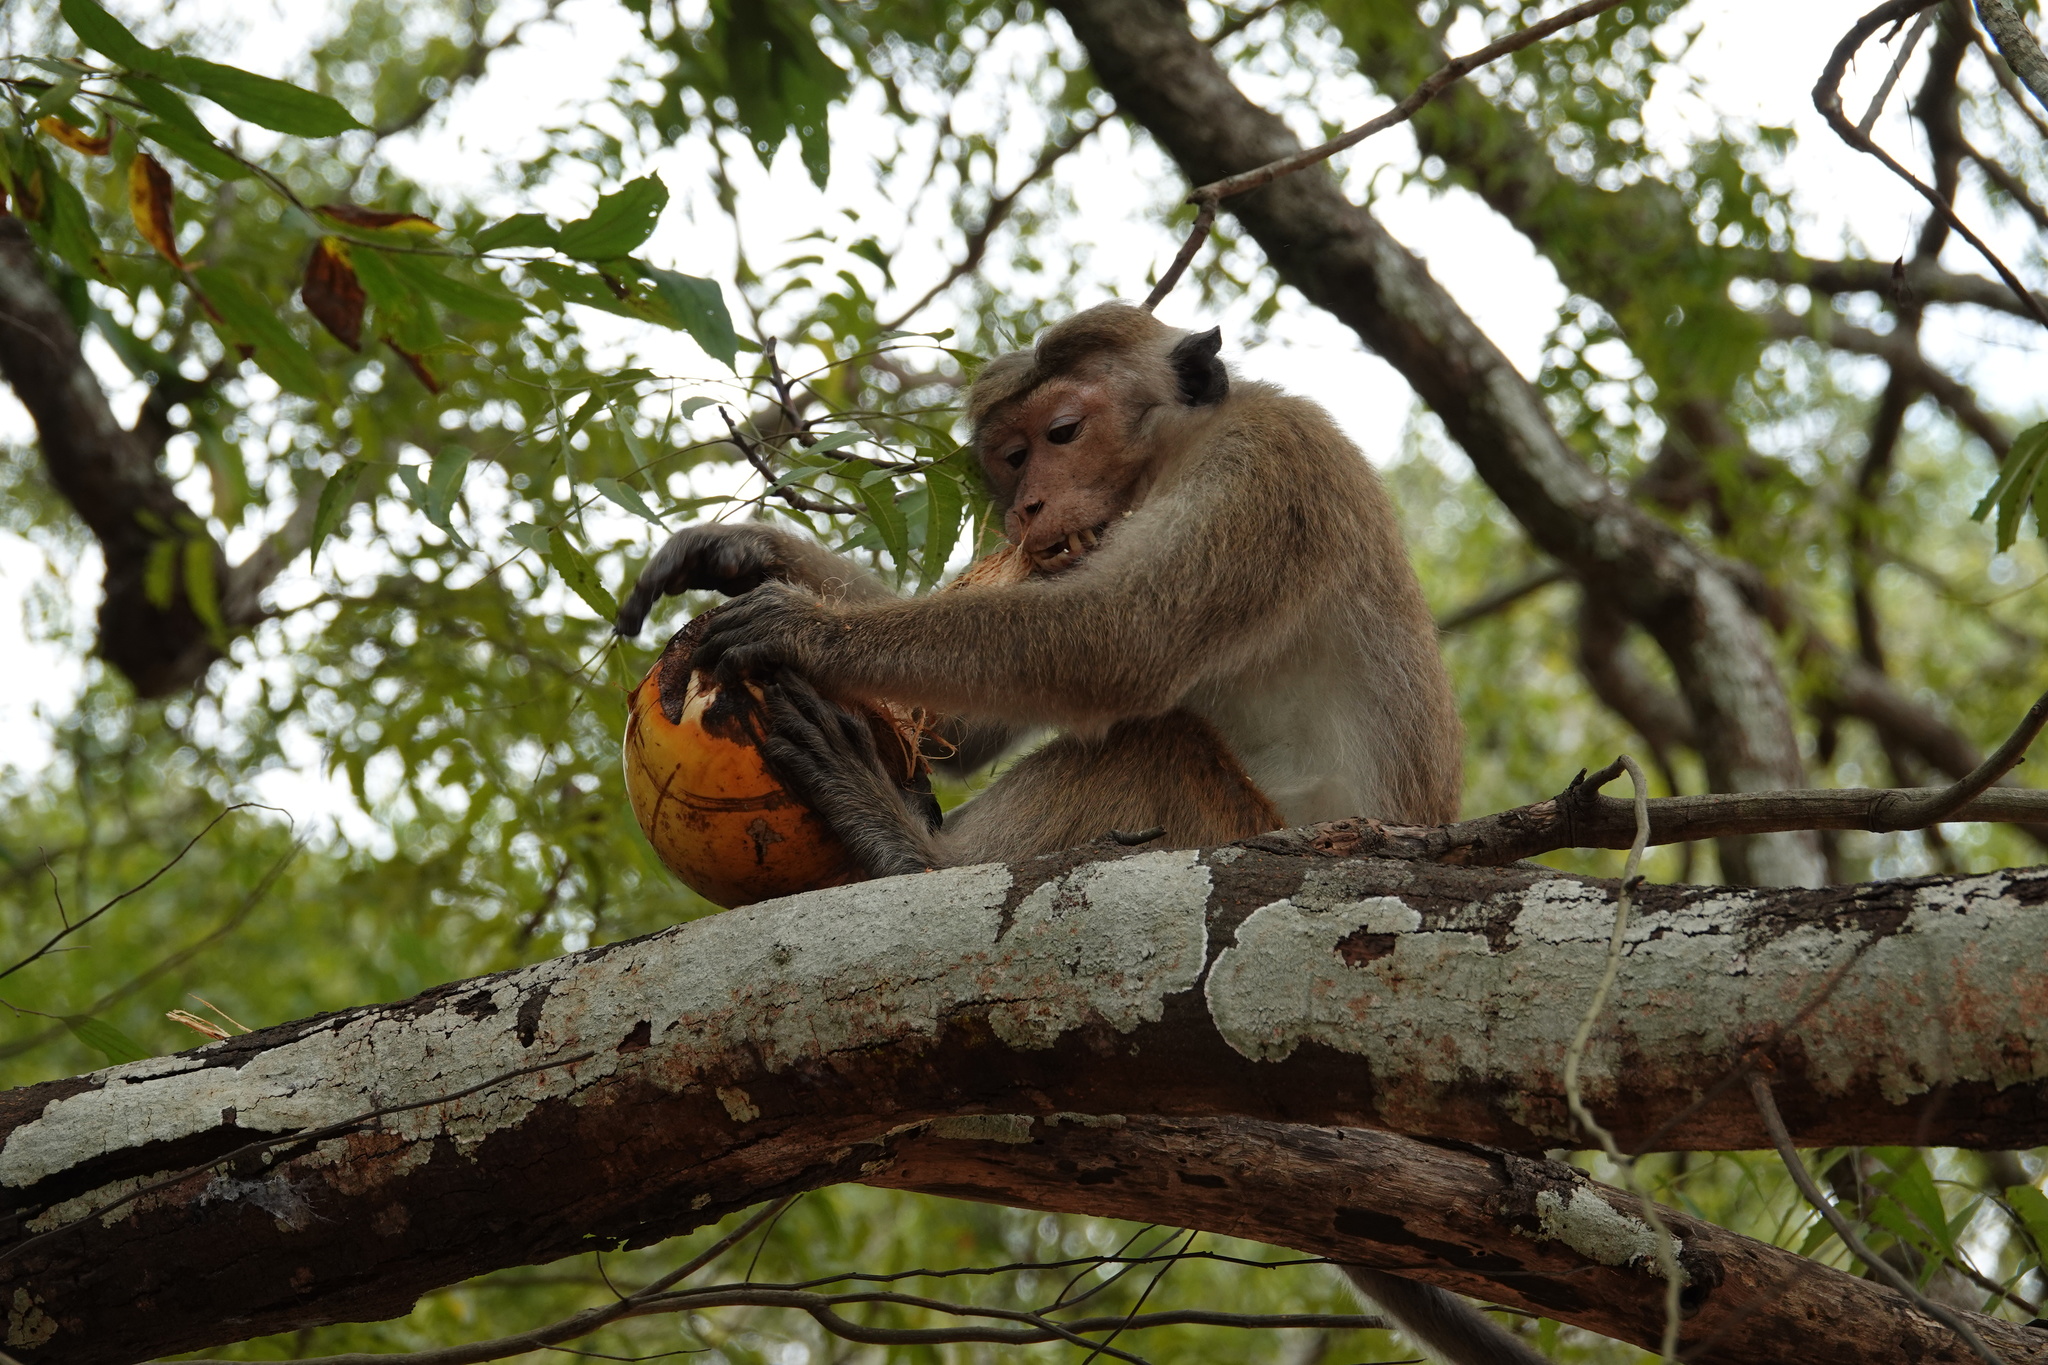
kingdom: Animalia
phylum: Chordata
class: Mammalia
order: Primates
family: Cercopithecidae
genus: Macaca
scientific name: Macaca sinica
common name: Toque macaque
